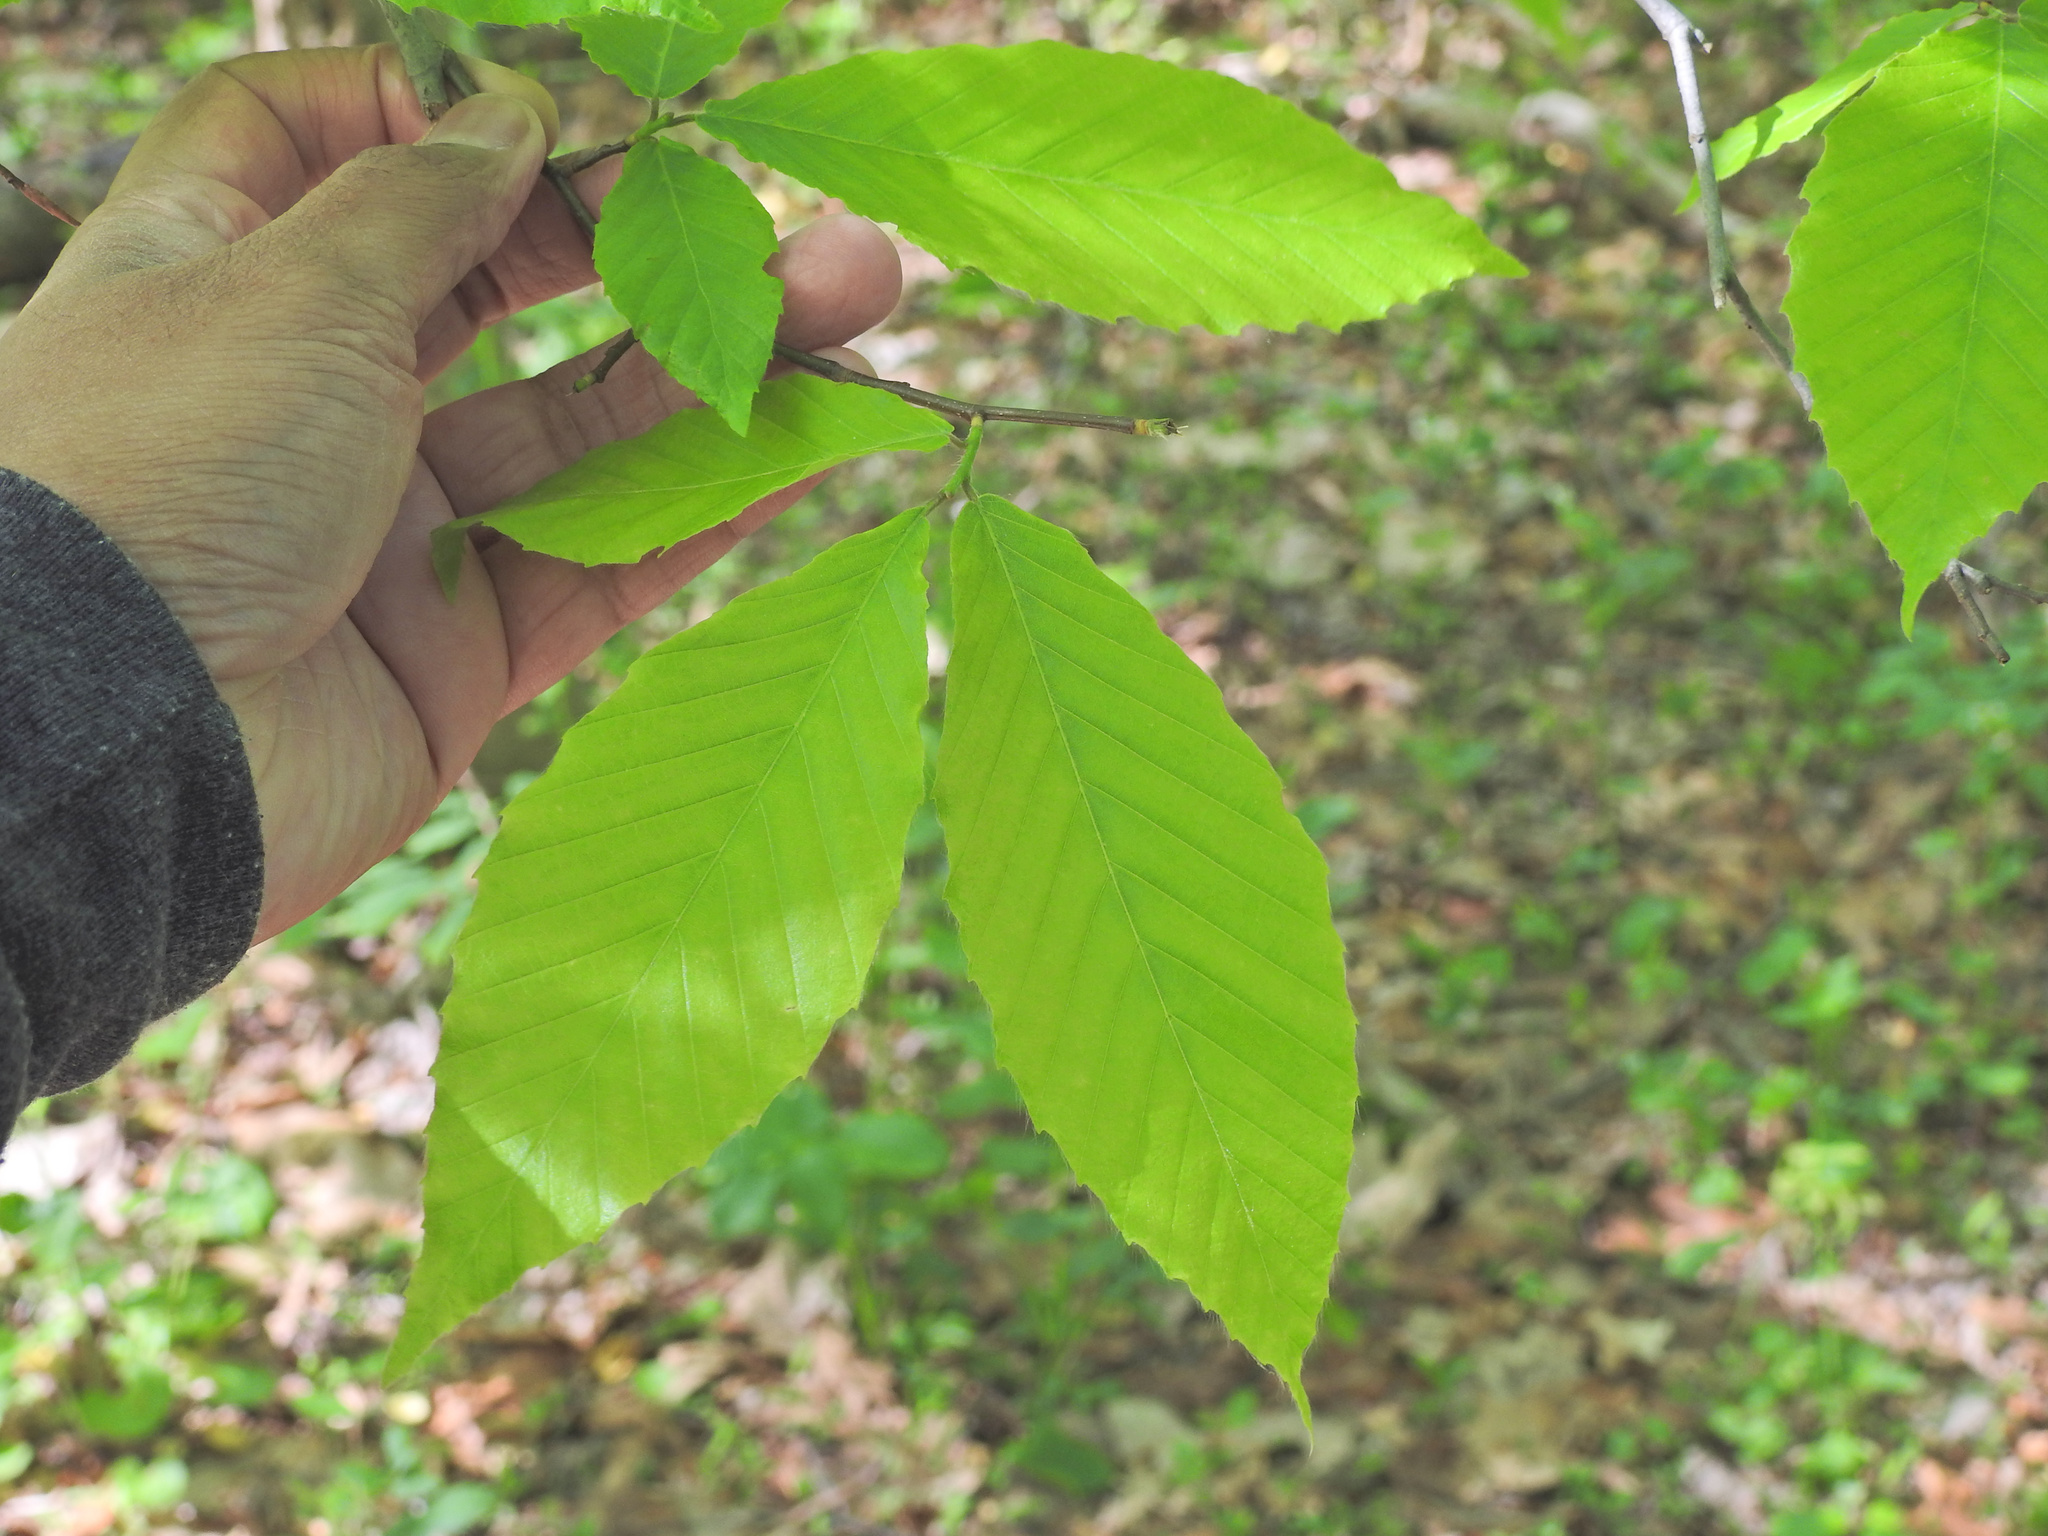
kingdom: Plantae
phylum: Tracheophyta
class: Magnoliopsida
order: Fagales
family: Fagaceae
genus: Fagus
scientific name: Fagus grandifolia
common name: American beech
